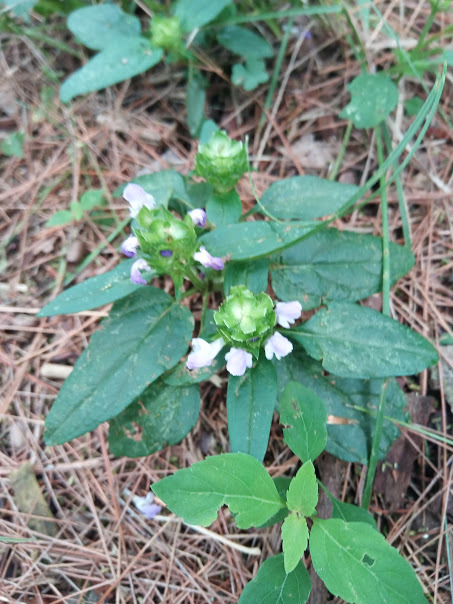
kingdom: Plantae
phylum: Tracheophyta
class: Magnoliopsida
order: Lamiales
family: Lamiaceae
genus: Prunella
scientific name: Prunella vulgaris
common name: Heal-all
